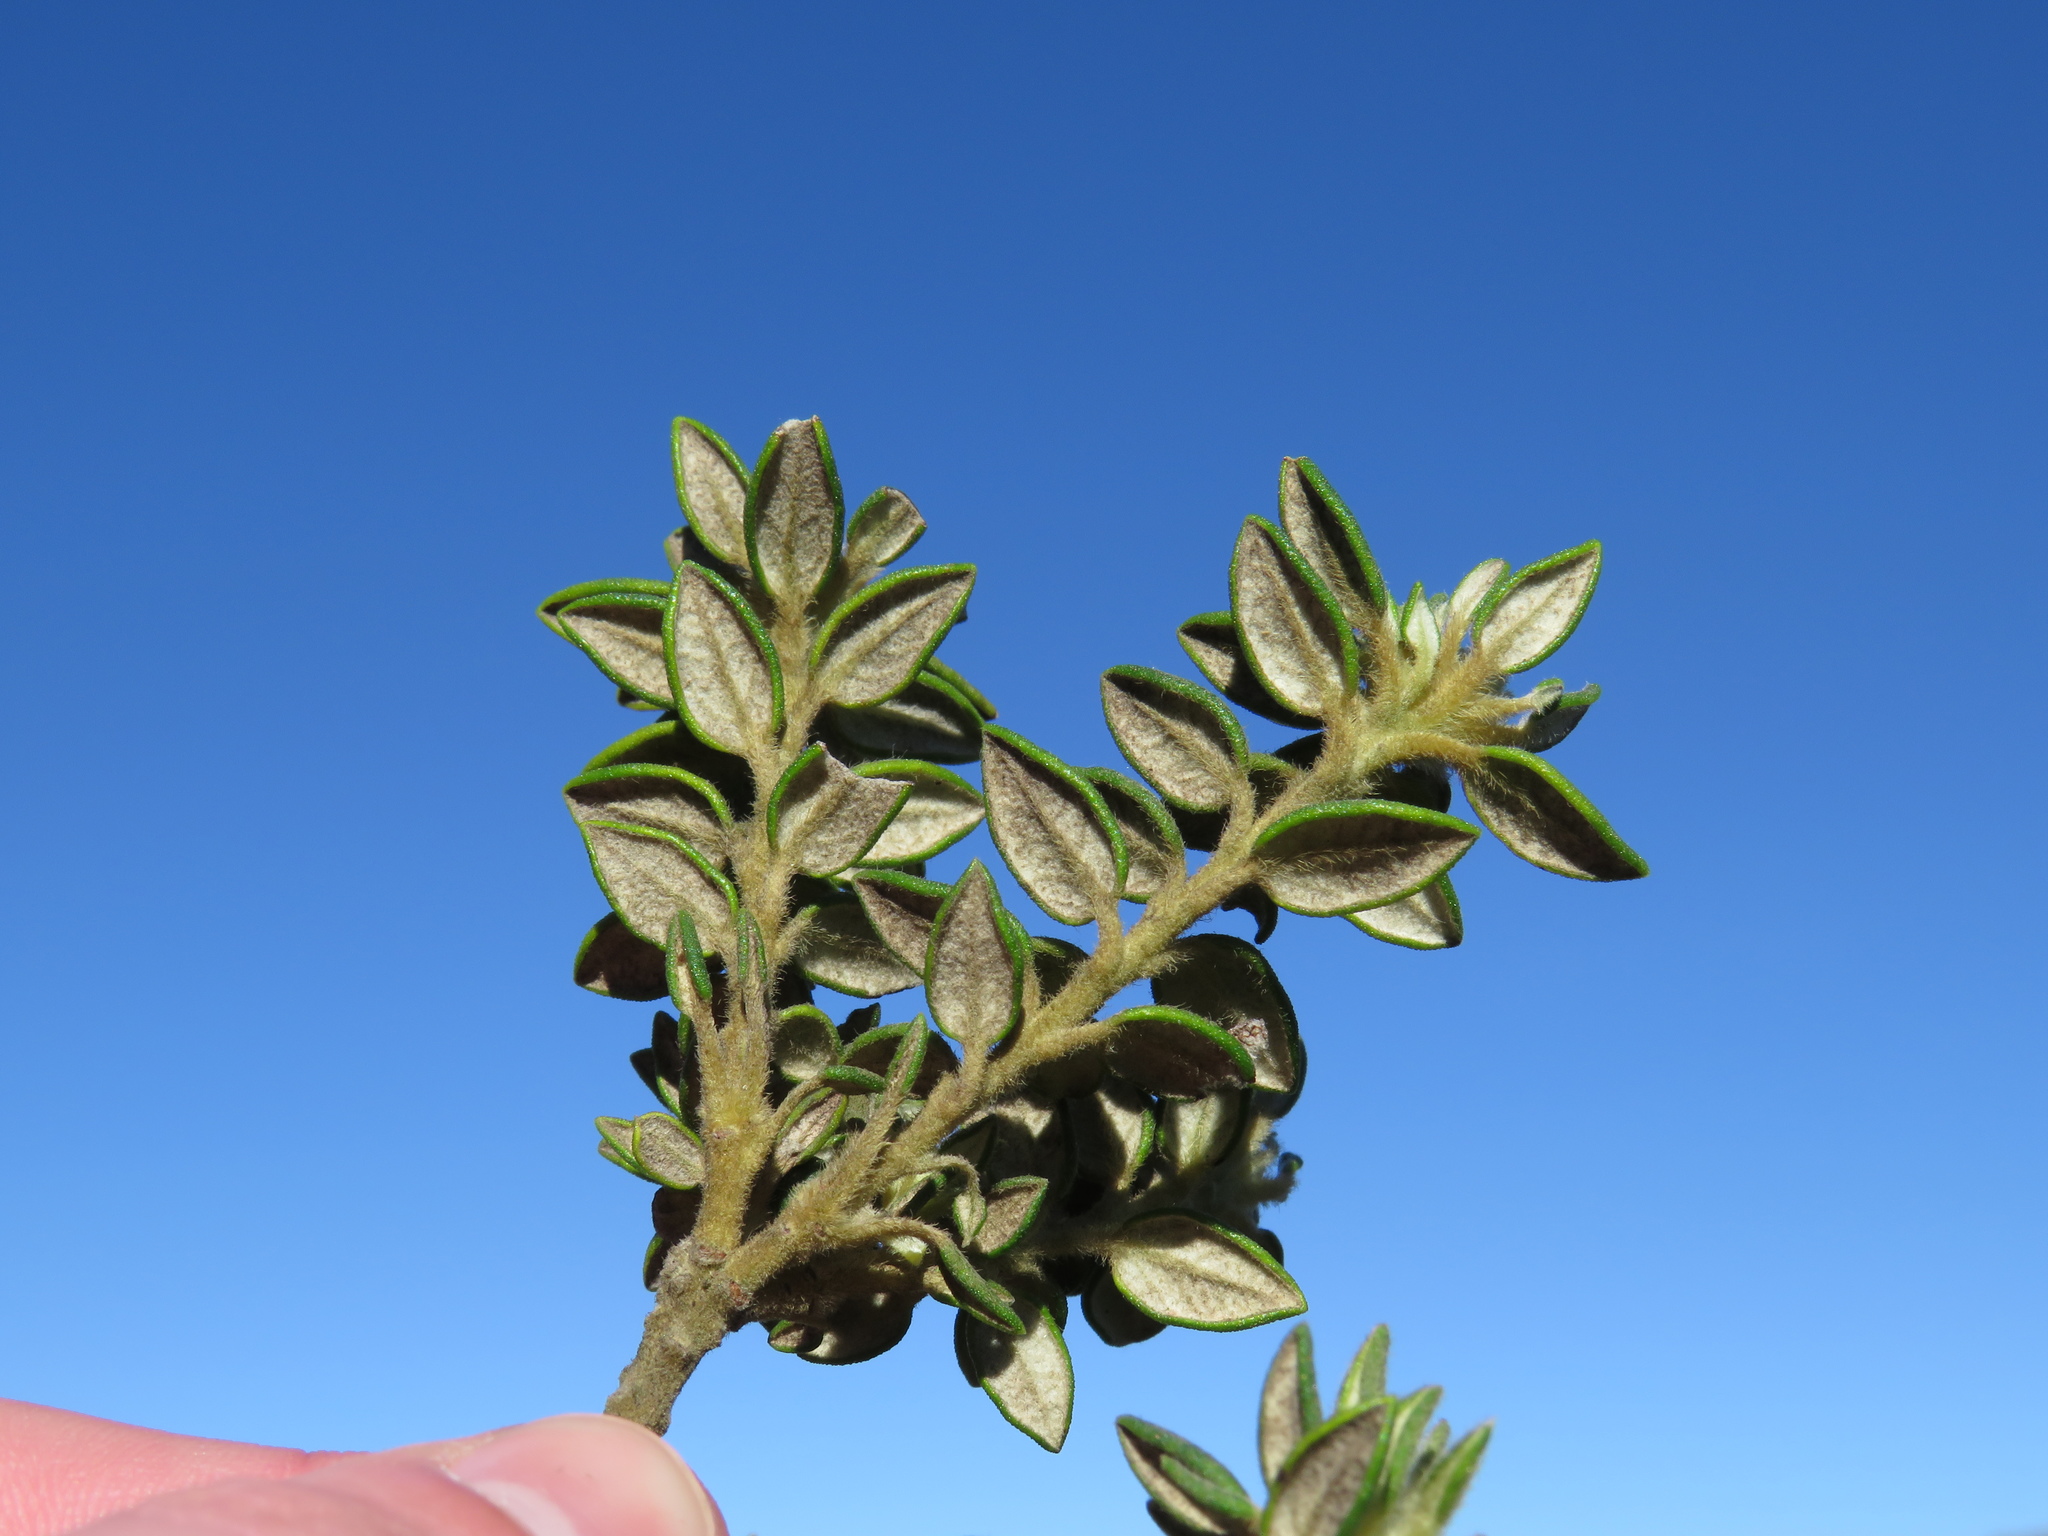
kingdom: Plantae
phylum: Tracheophyta
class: Magnoliopsida
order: Rosales
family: Rhamnaceae
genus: Phylica
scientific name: Phylica dioica
